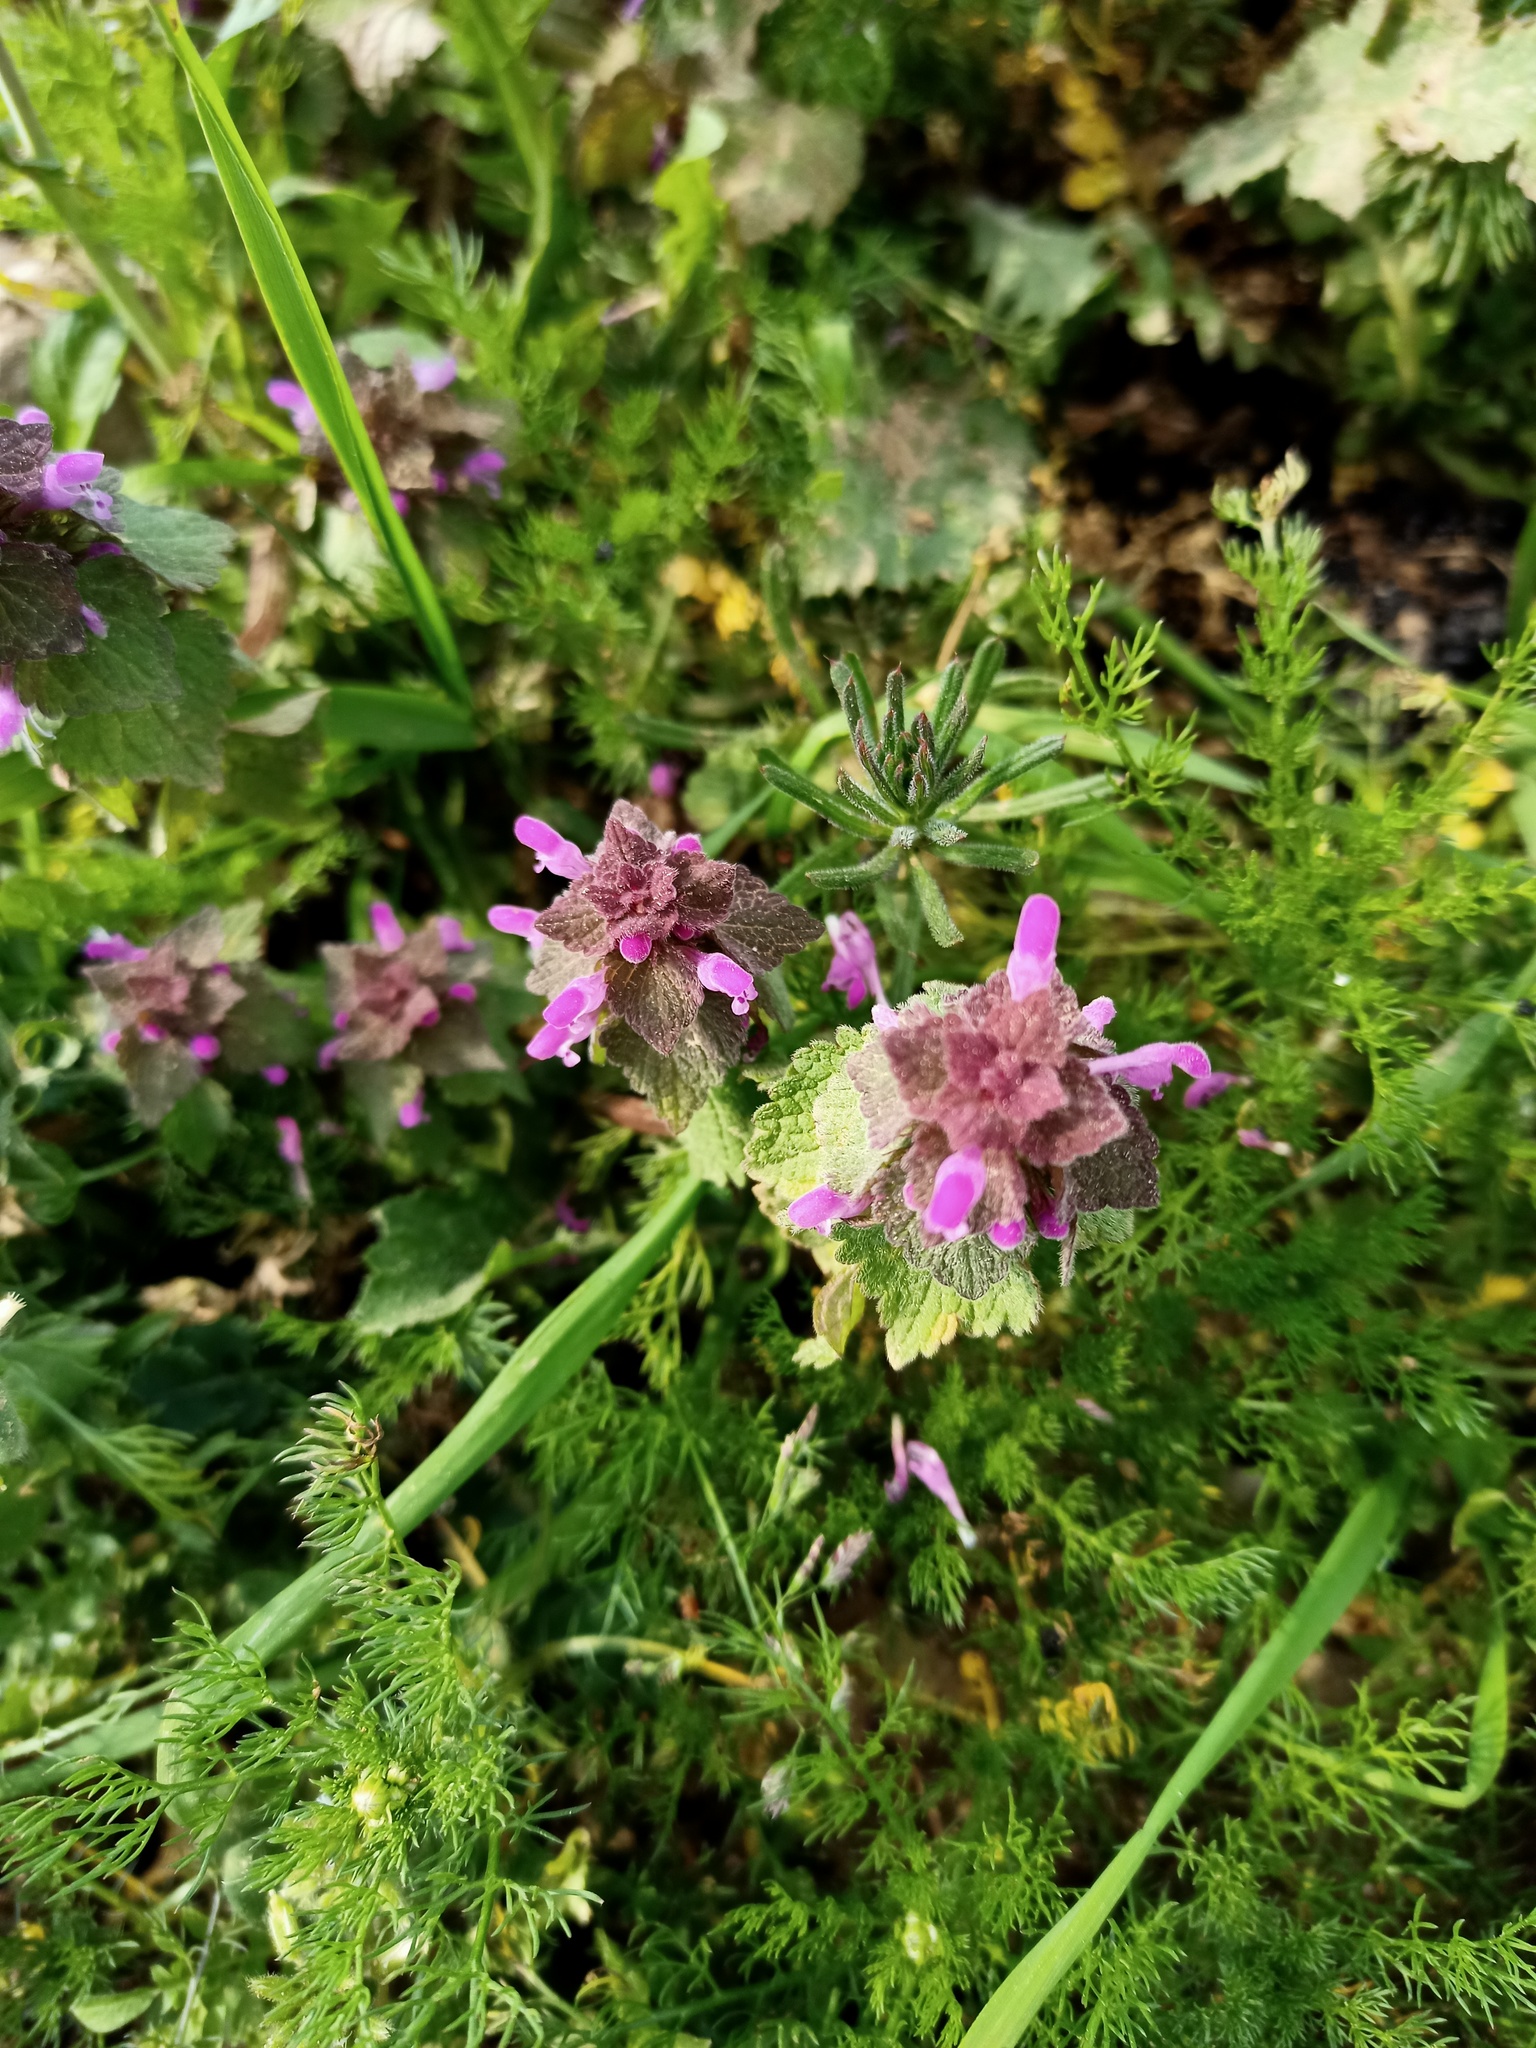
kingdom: Plantae
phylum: Tracheophyta
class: Magnoliopsida
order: Lamiales
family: Lamiaceae
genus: Lamium
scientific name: Lamium purpureum
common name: Red dead-nettle
